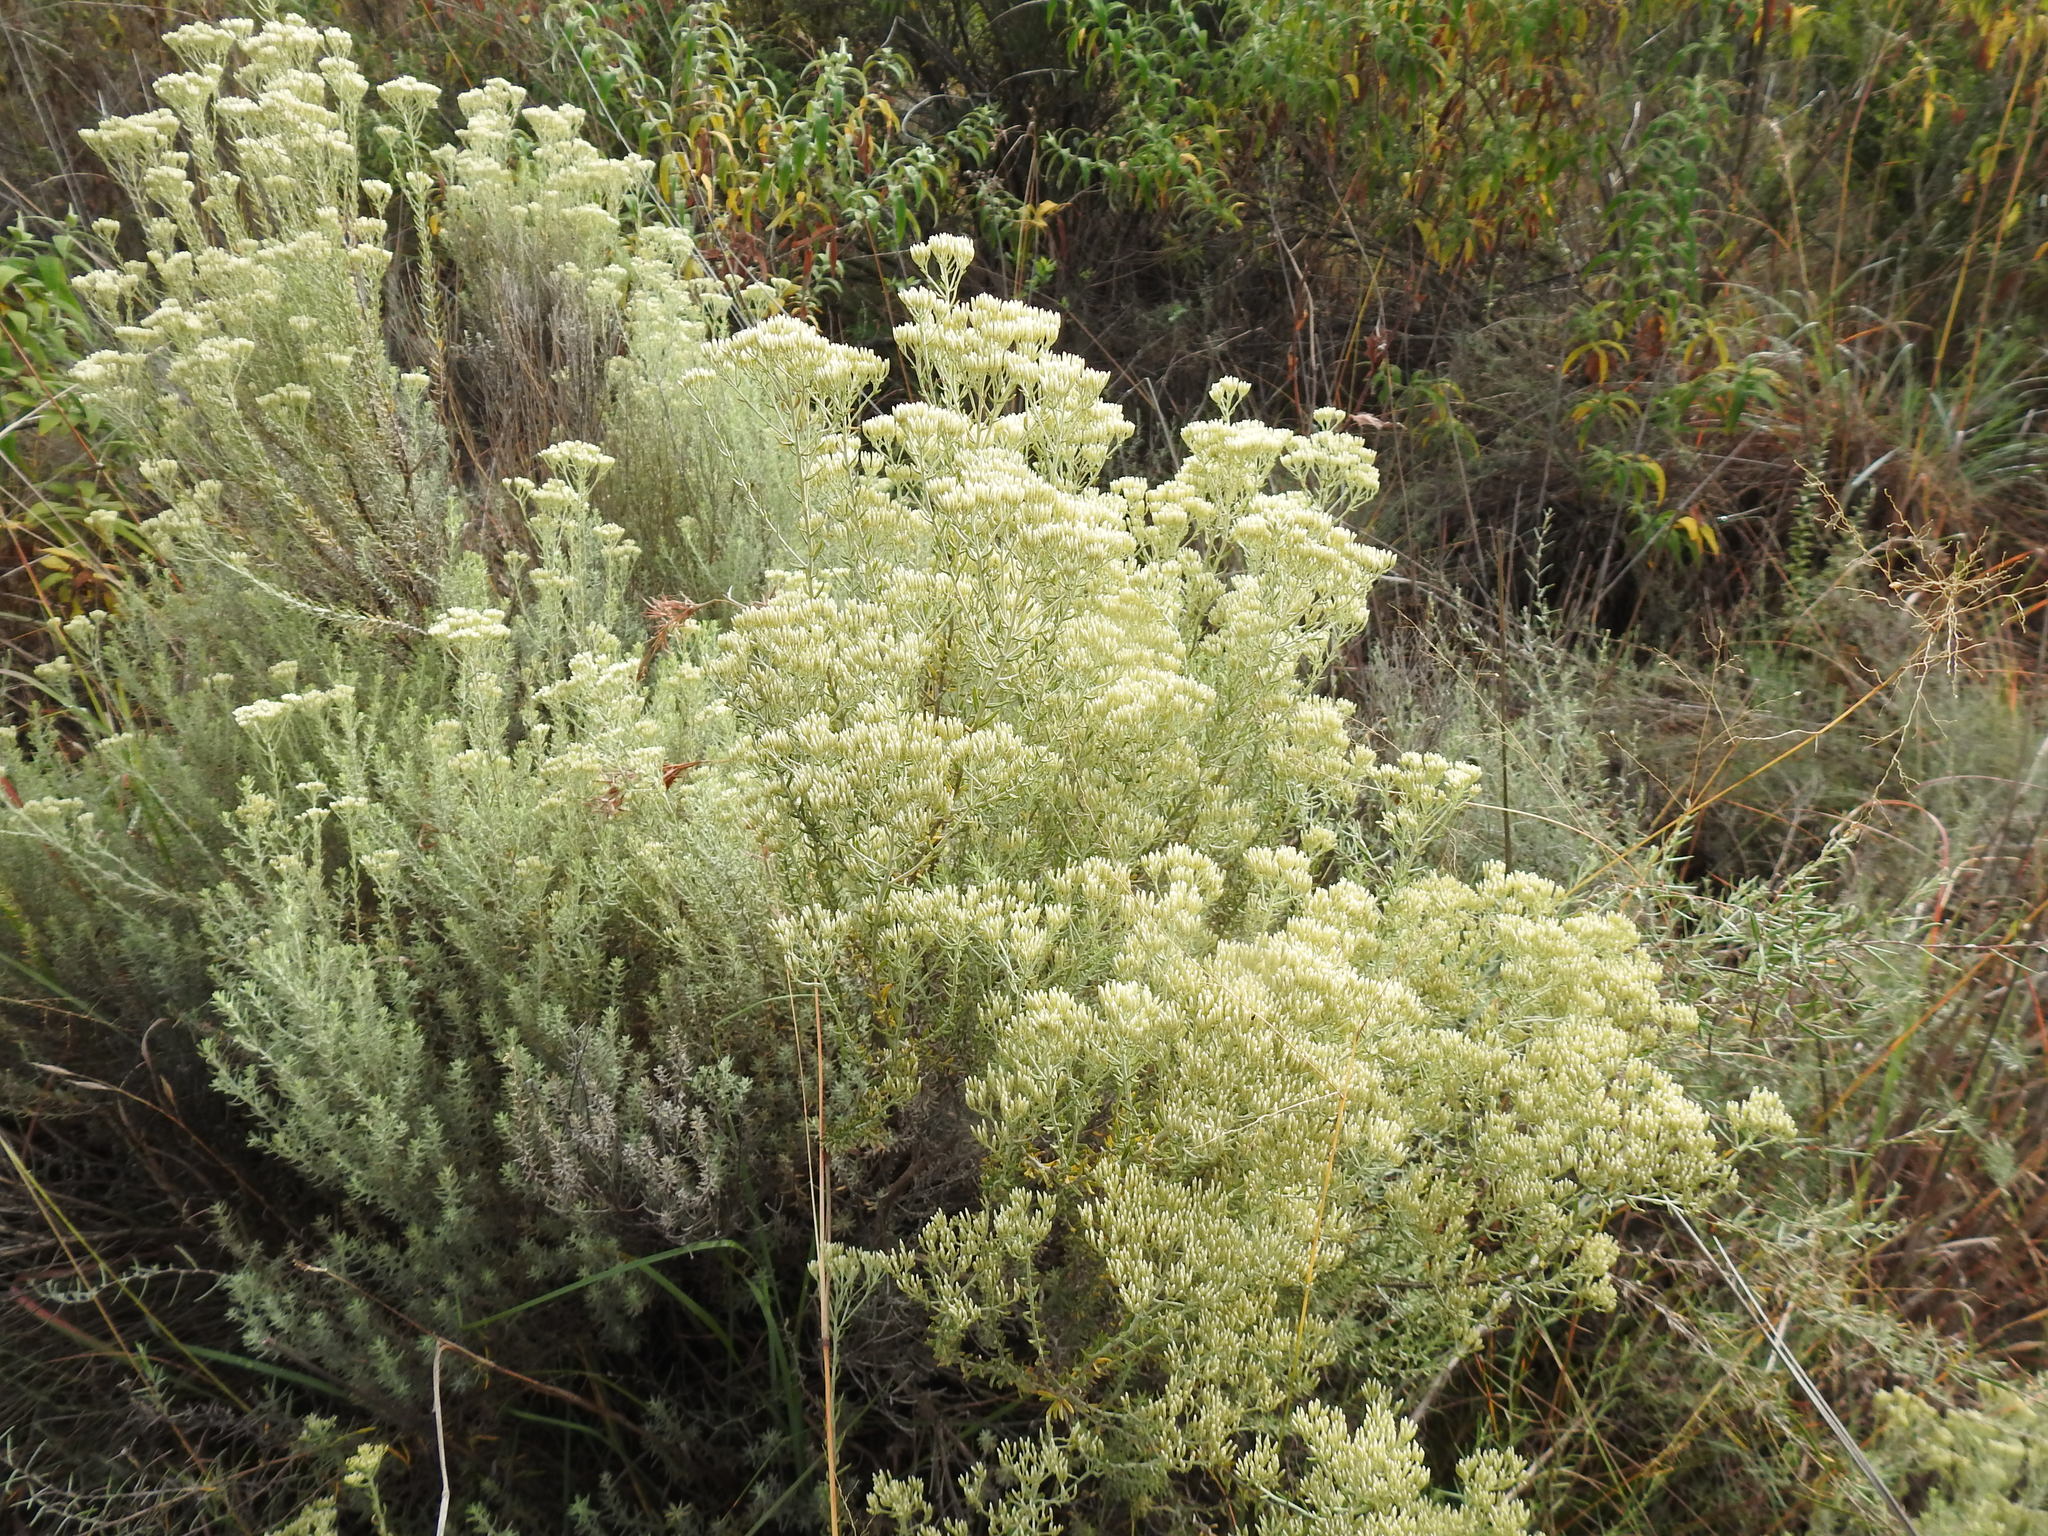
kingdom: Plantae
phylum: Tracheophyta
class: Magnoliopsida
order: Asterales
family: Asteraceae
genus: Helichrysum
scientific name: Helichrysum kraussii
